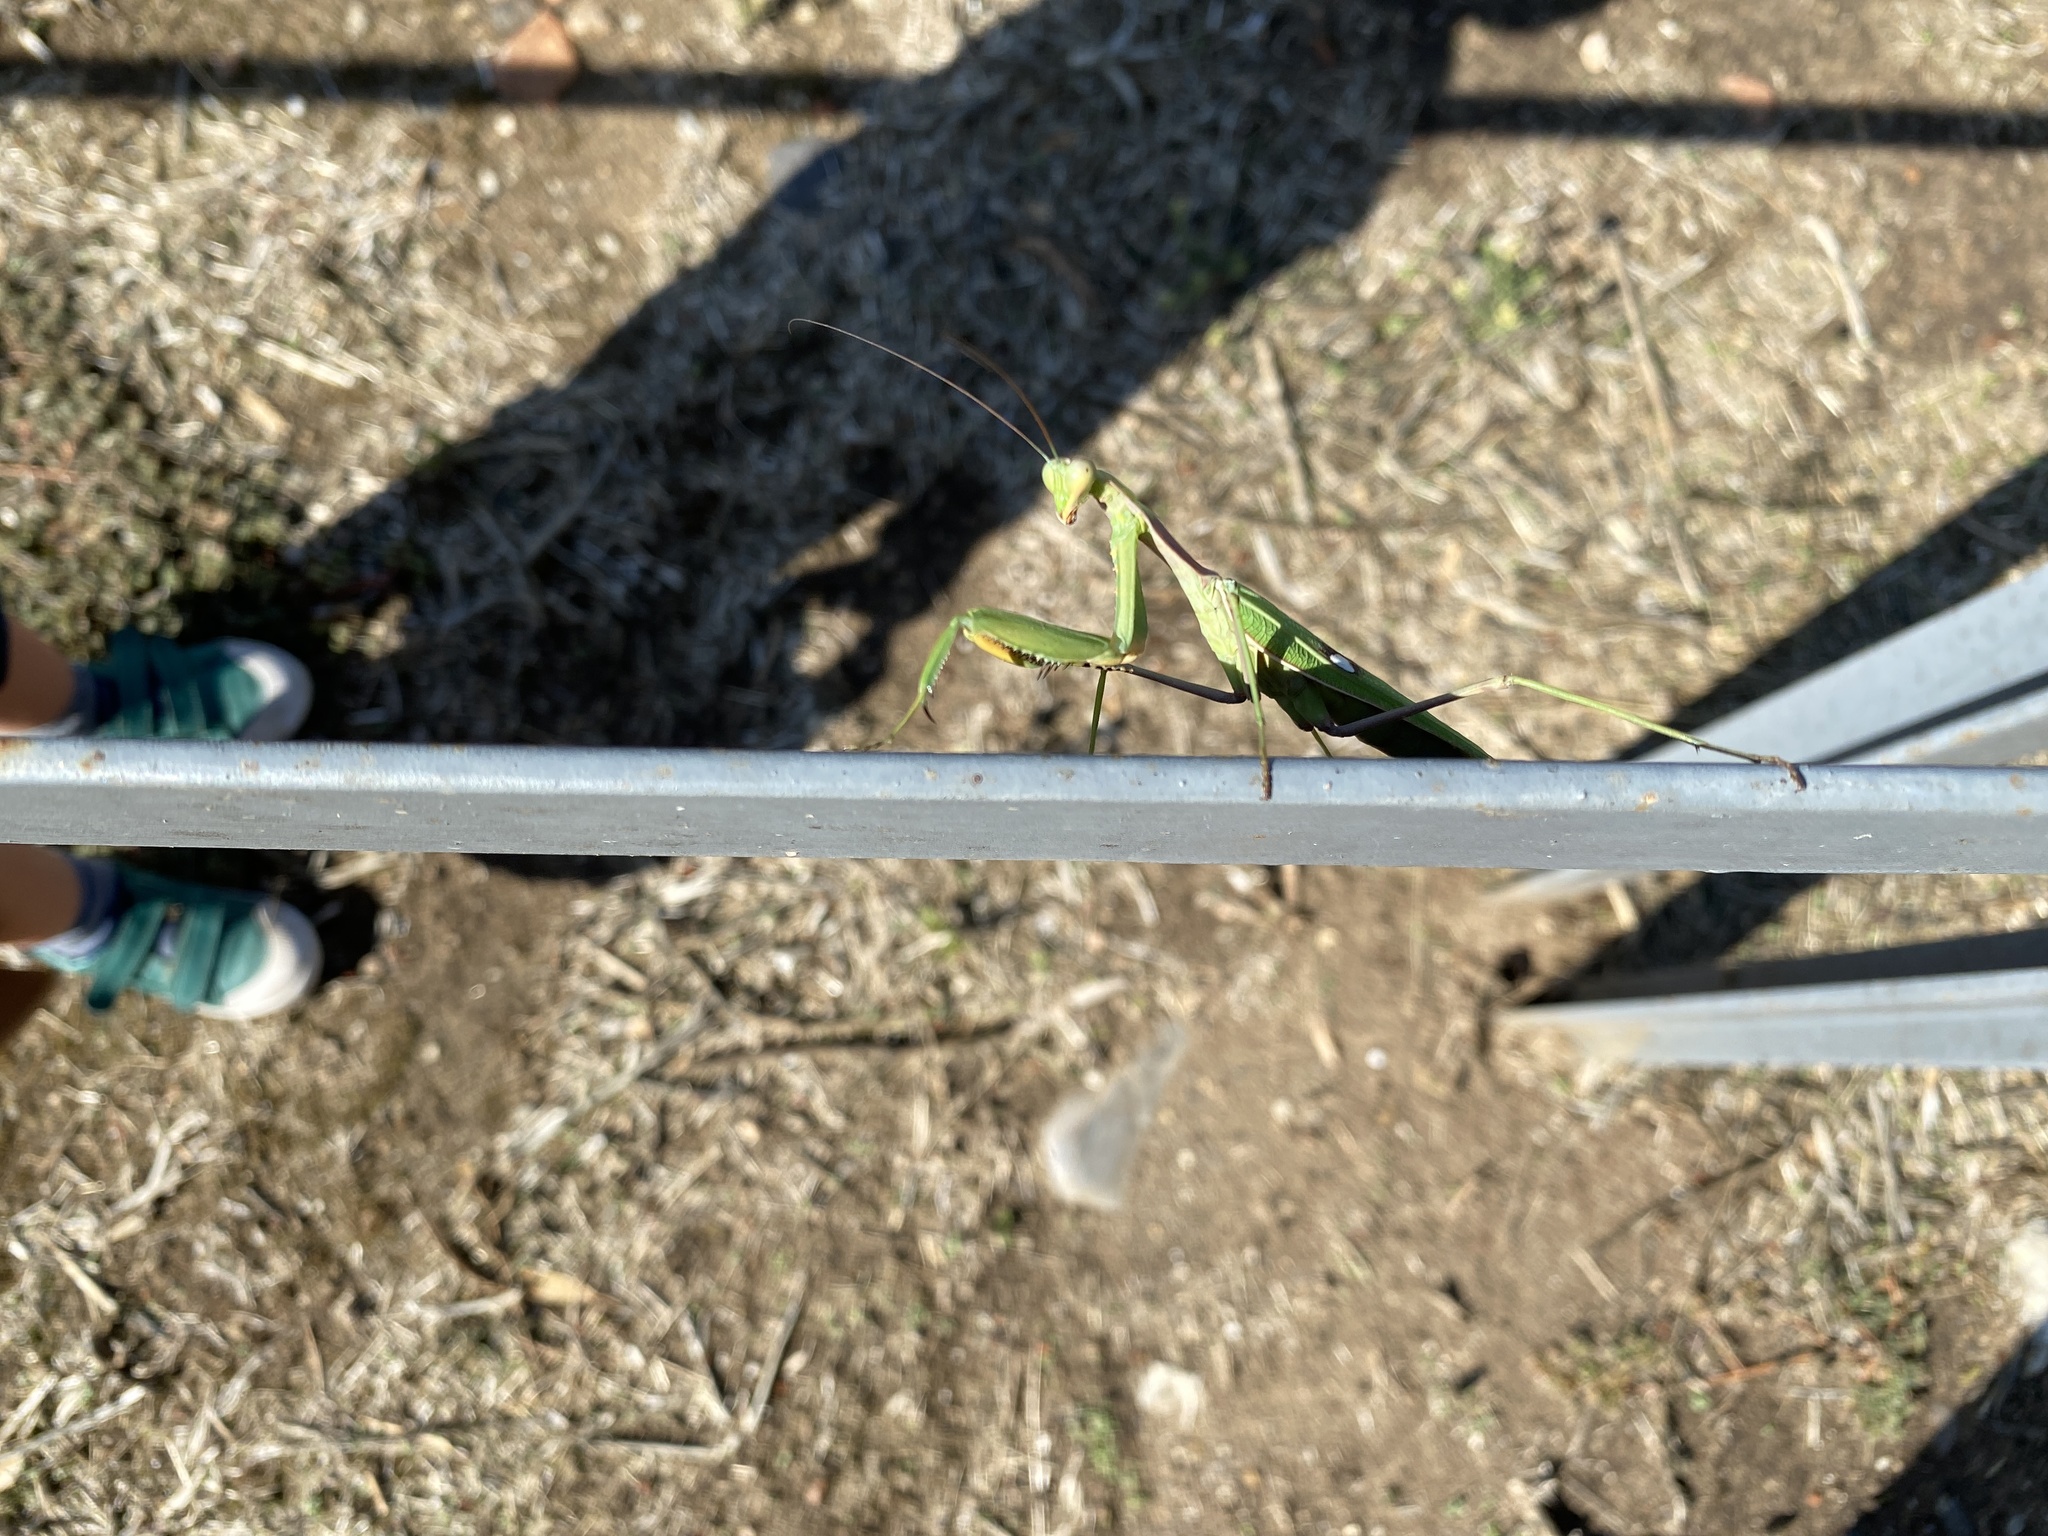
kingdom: Animalia
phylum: Arthropoda
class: Insecta
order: Mantodea
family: Mantidae
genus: Sphodromantis
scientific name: Sphodromantis viridis
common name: Giant african mantis
